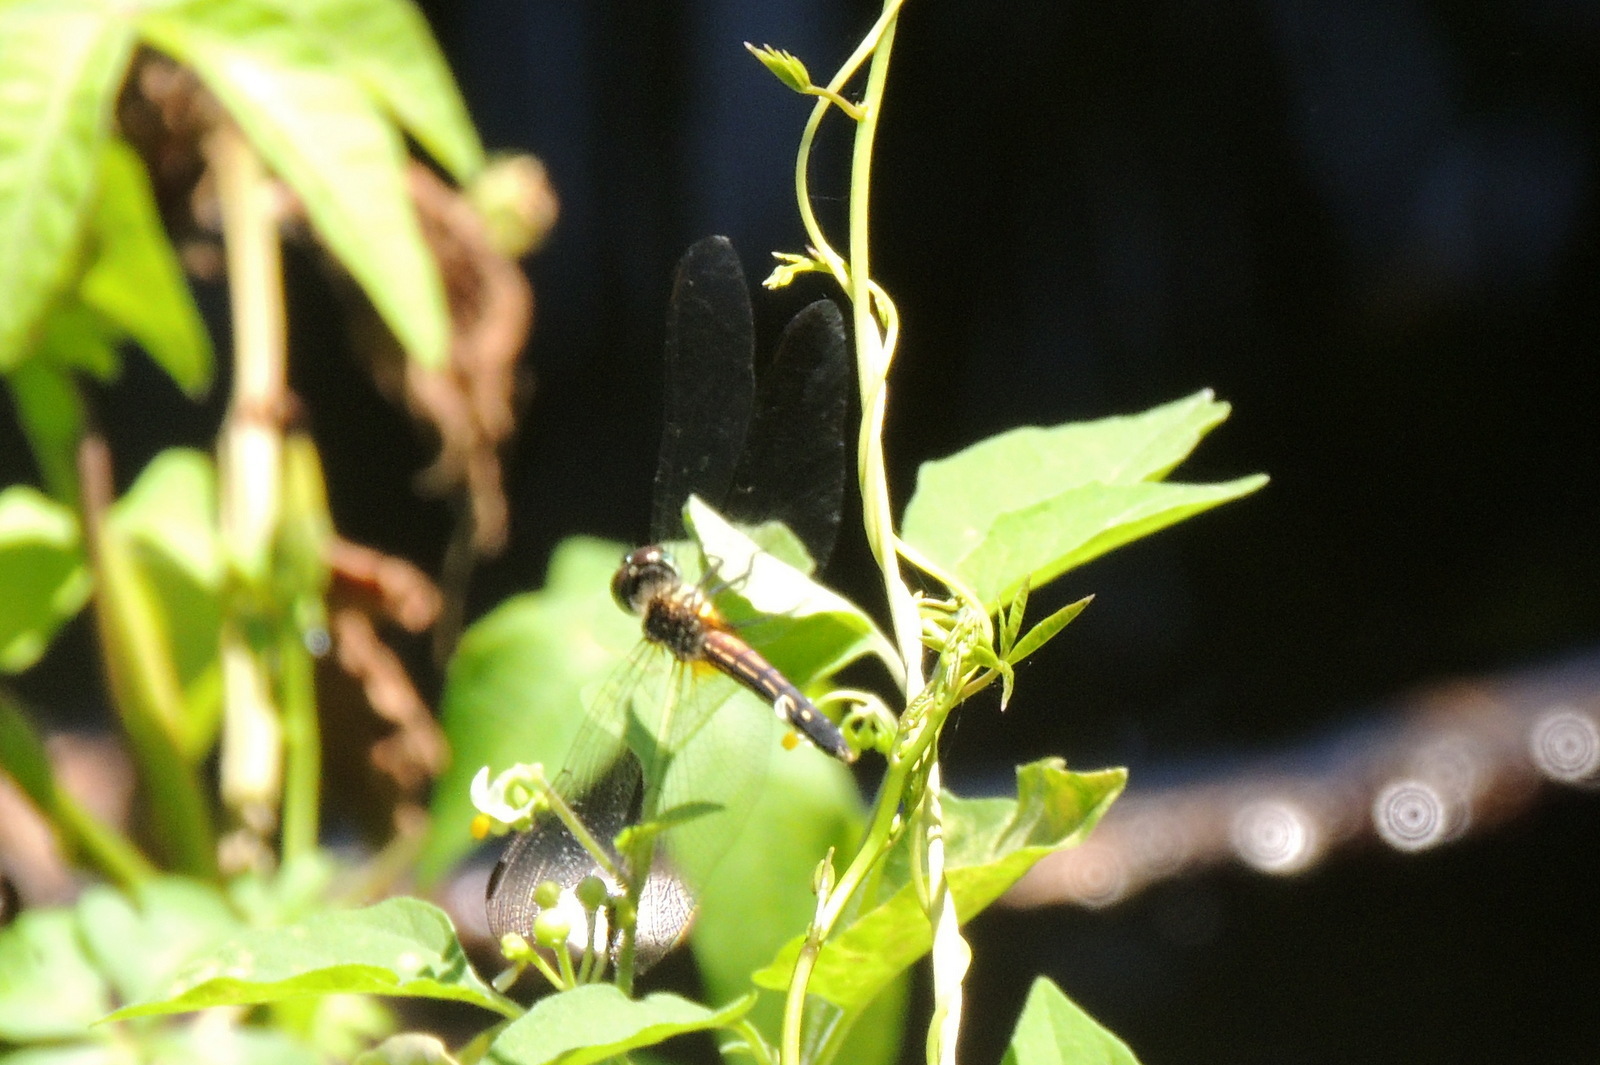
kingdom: Animalia
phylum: Arthropoda
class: Insecta
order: Odonata
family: Libellulidae
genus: Pachydiplax
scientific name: Pachydiplax longipennis
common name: Blue dasher
